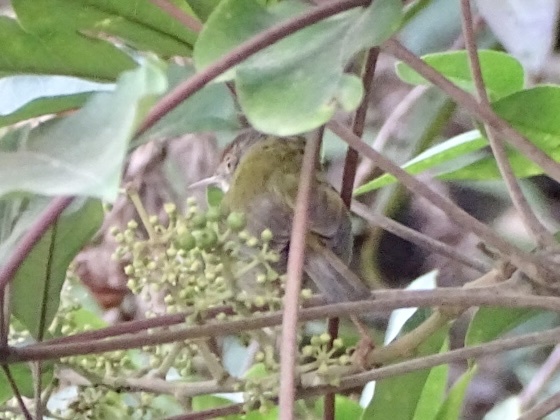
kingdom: Animalia
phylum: Chordata
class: Aves
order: Passeriformes
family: Cisticolidae
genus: Orthotomus
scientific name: Orthotomus sutorius
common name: Common tailorbird
